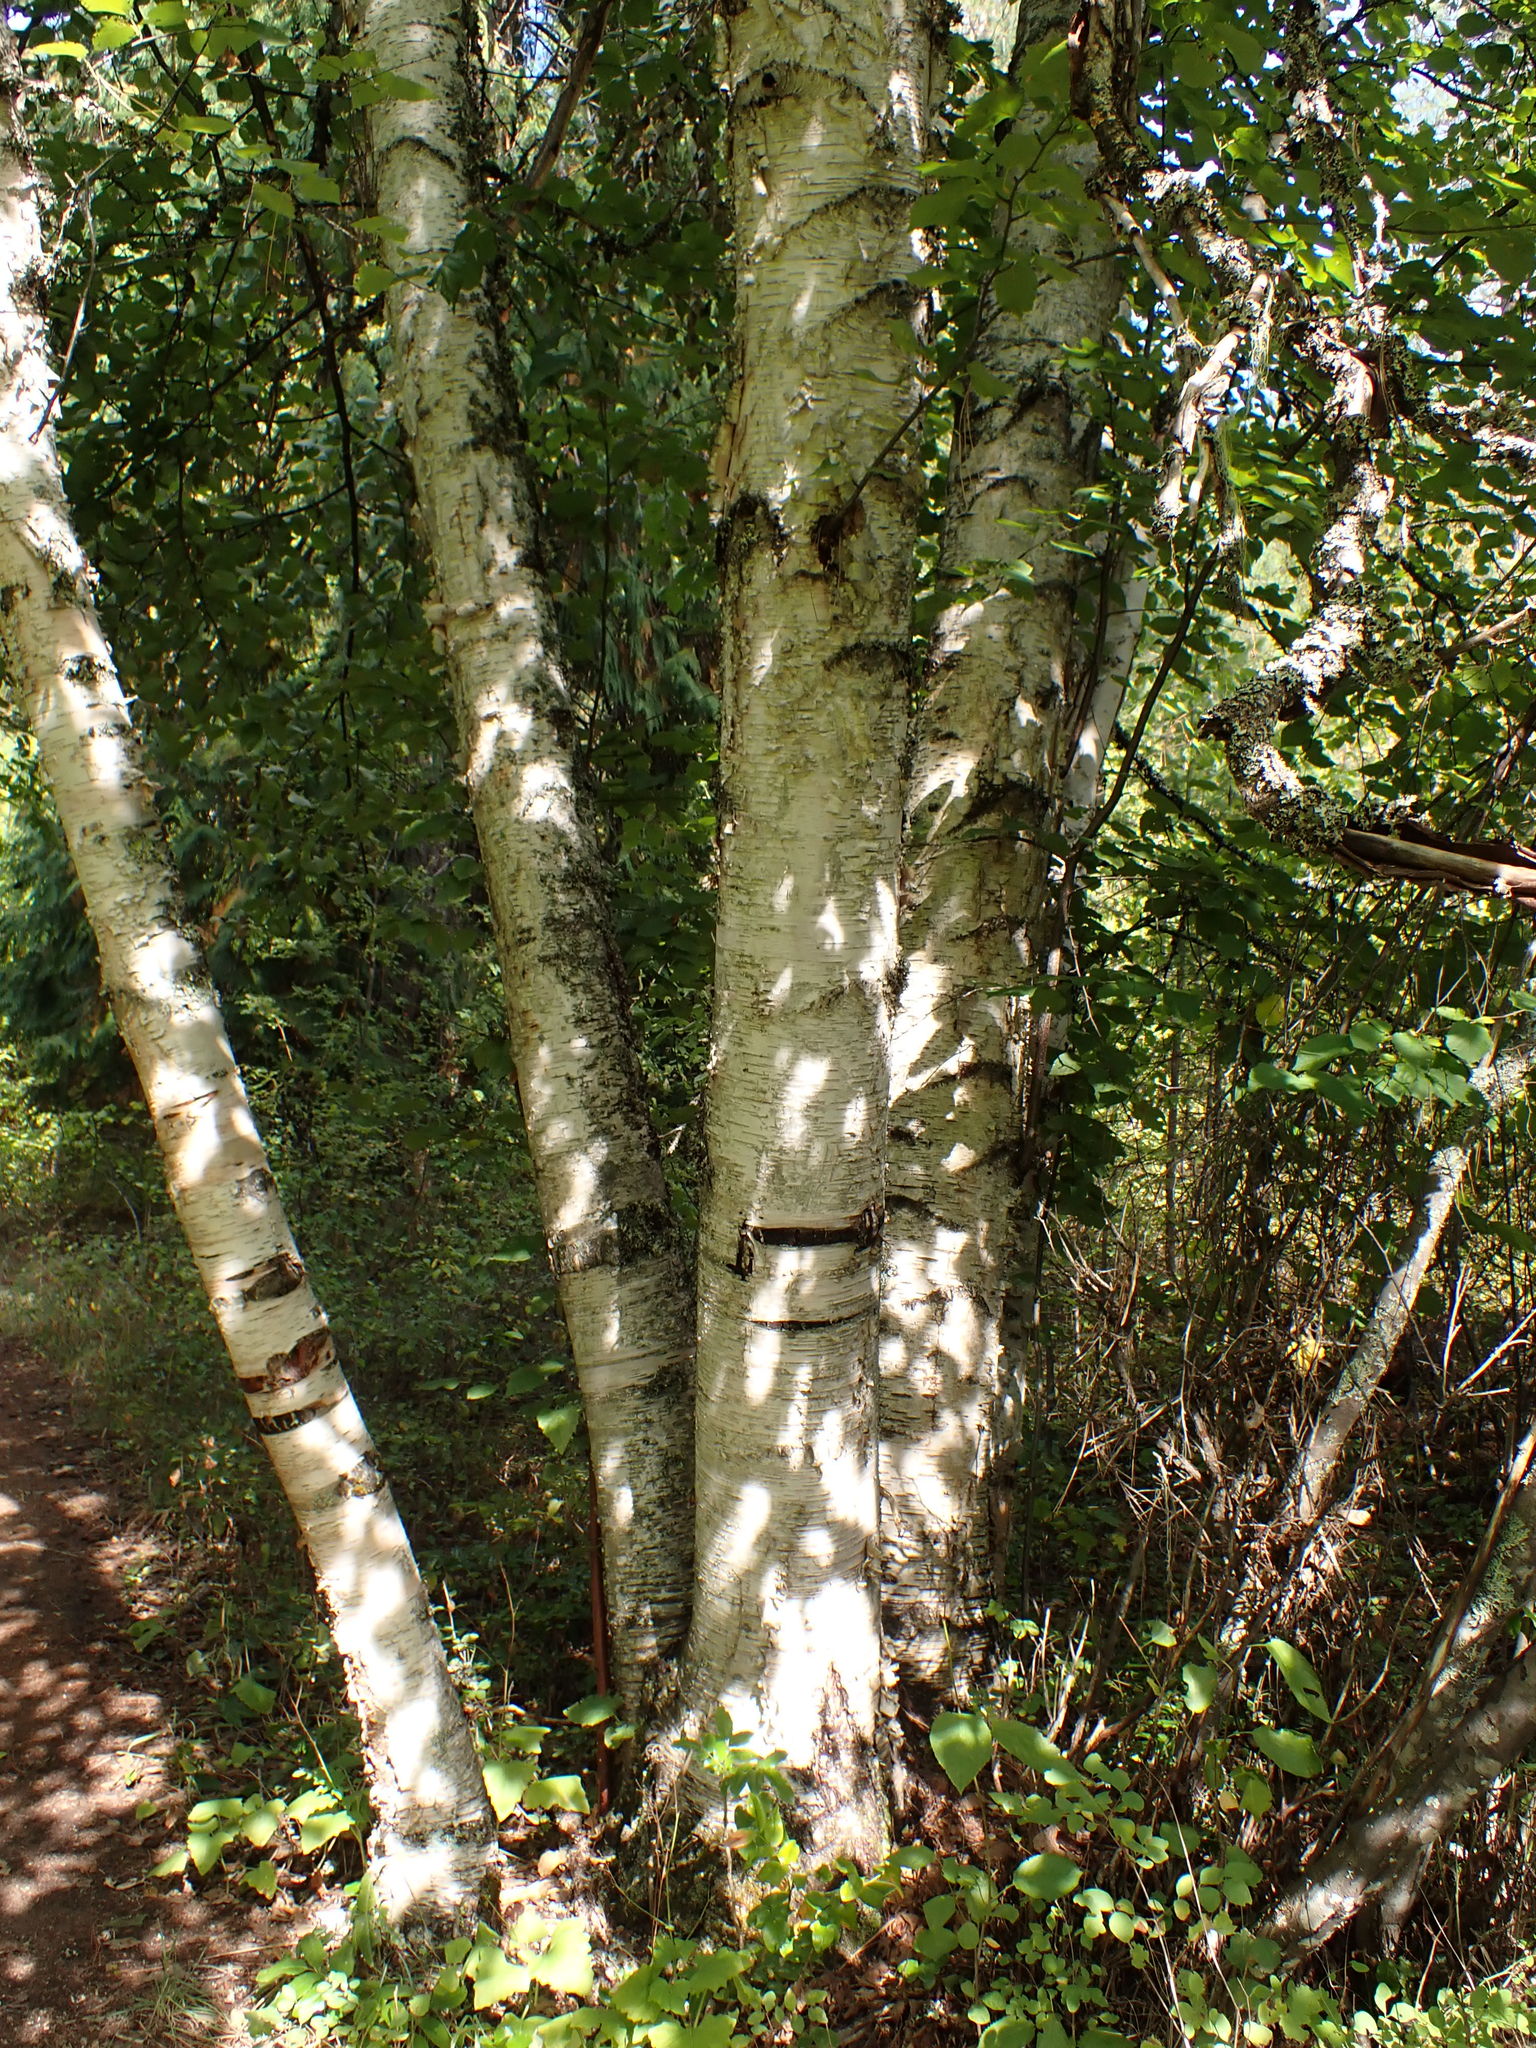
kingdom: Plantae
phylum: Tracheophyta
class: Magnoliopsida
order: Fagales
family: Betulaceae
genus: Betula
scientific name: Betula papyrifera
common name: Paper birch
